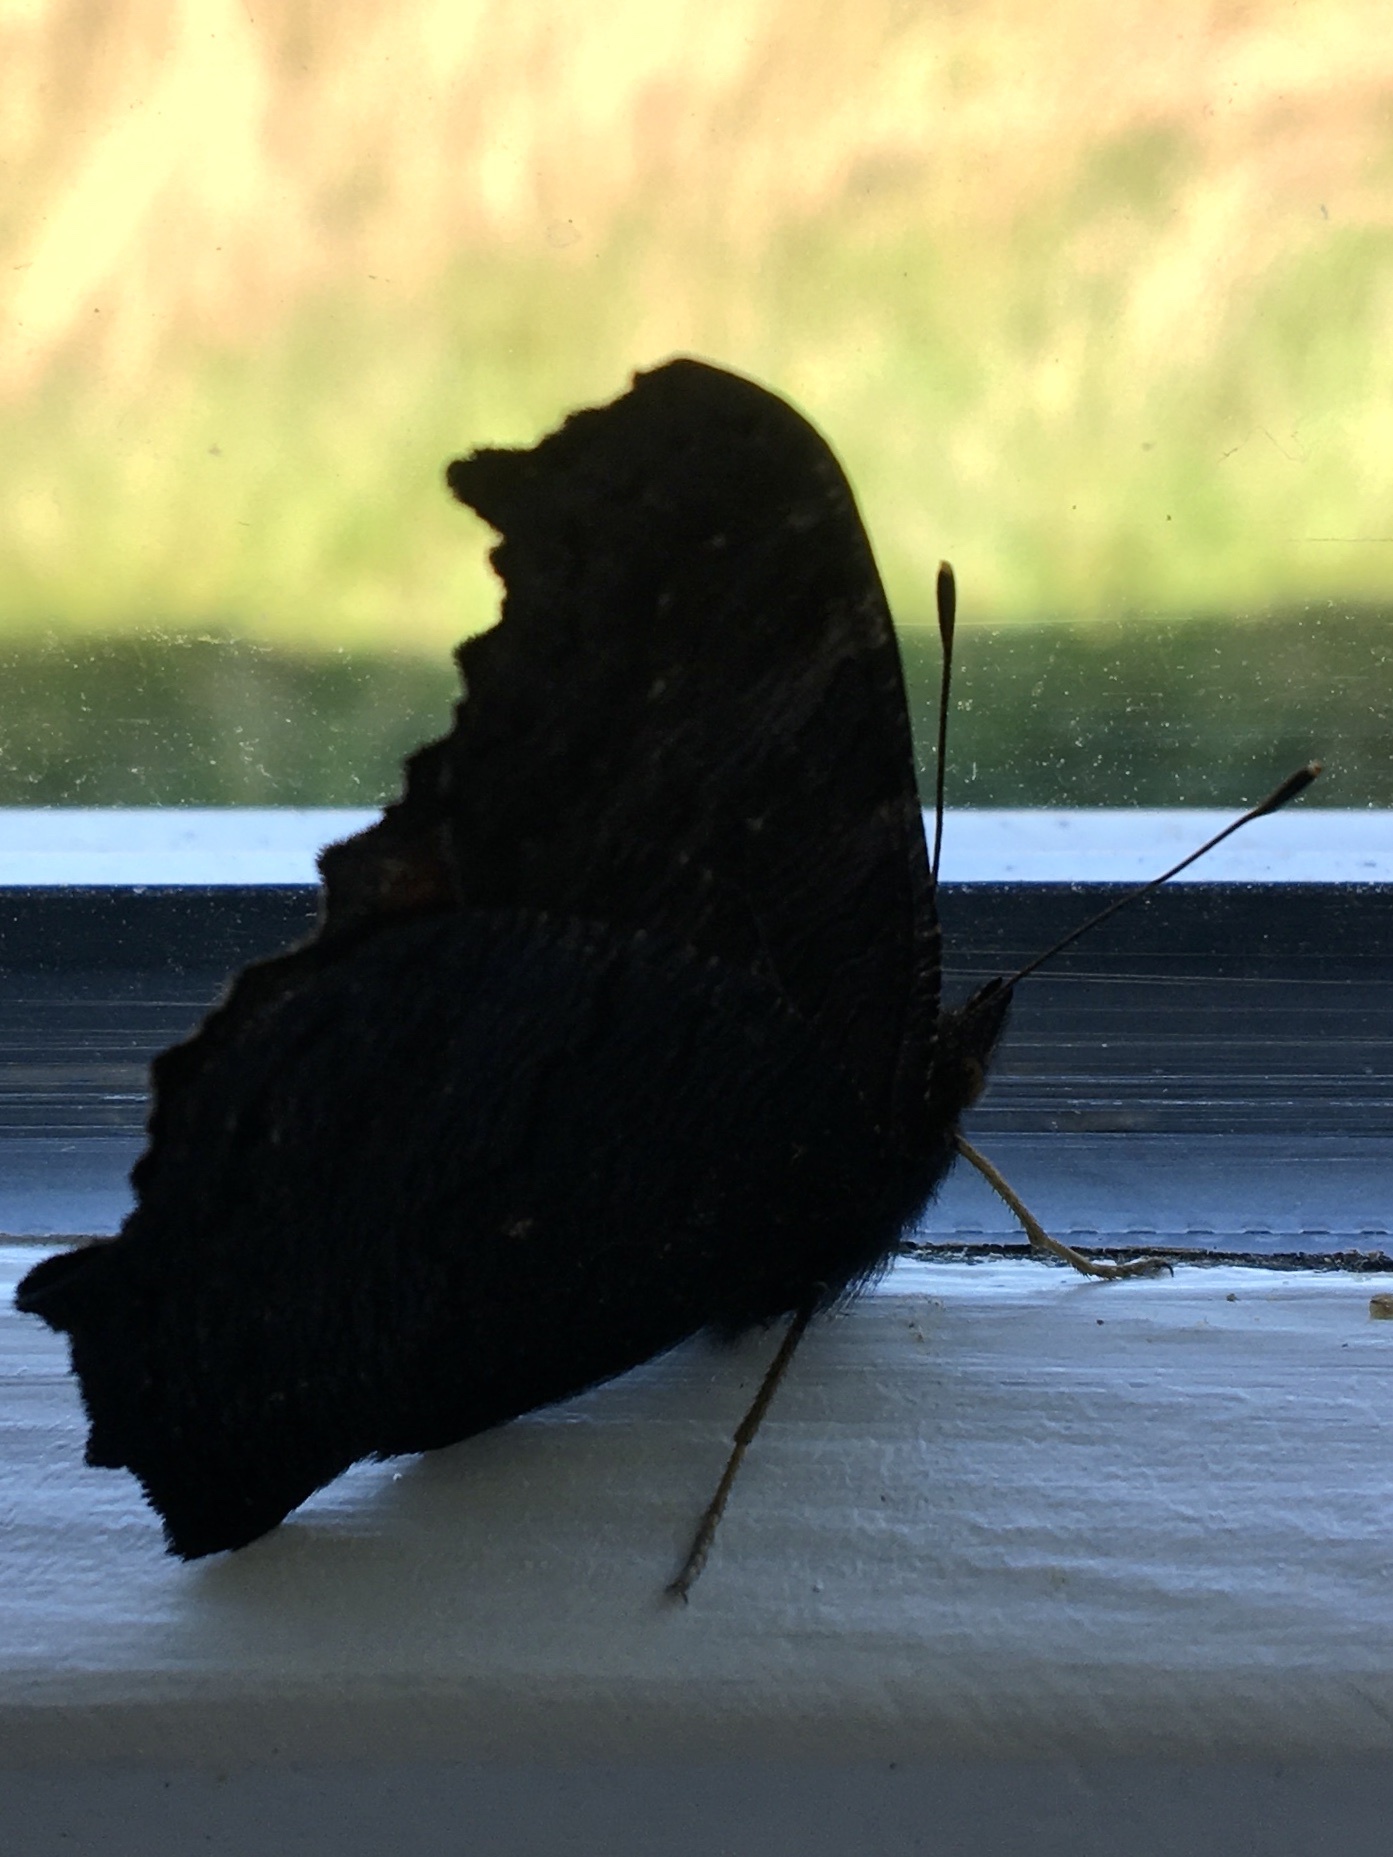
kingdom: Animalia
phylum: Arthropoda
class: Insecta
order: Lepidoptera
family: Nymphalidae
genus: Aglais
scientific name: Aglais io
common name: Peacock
